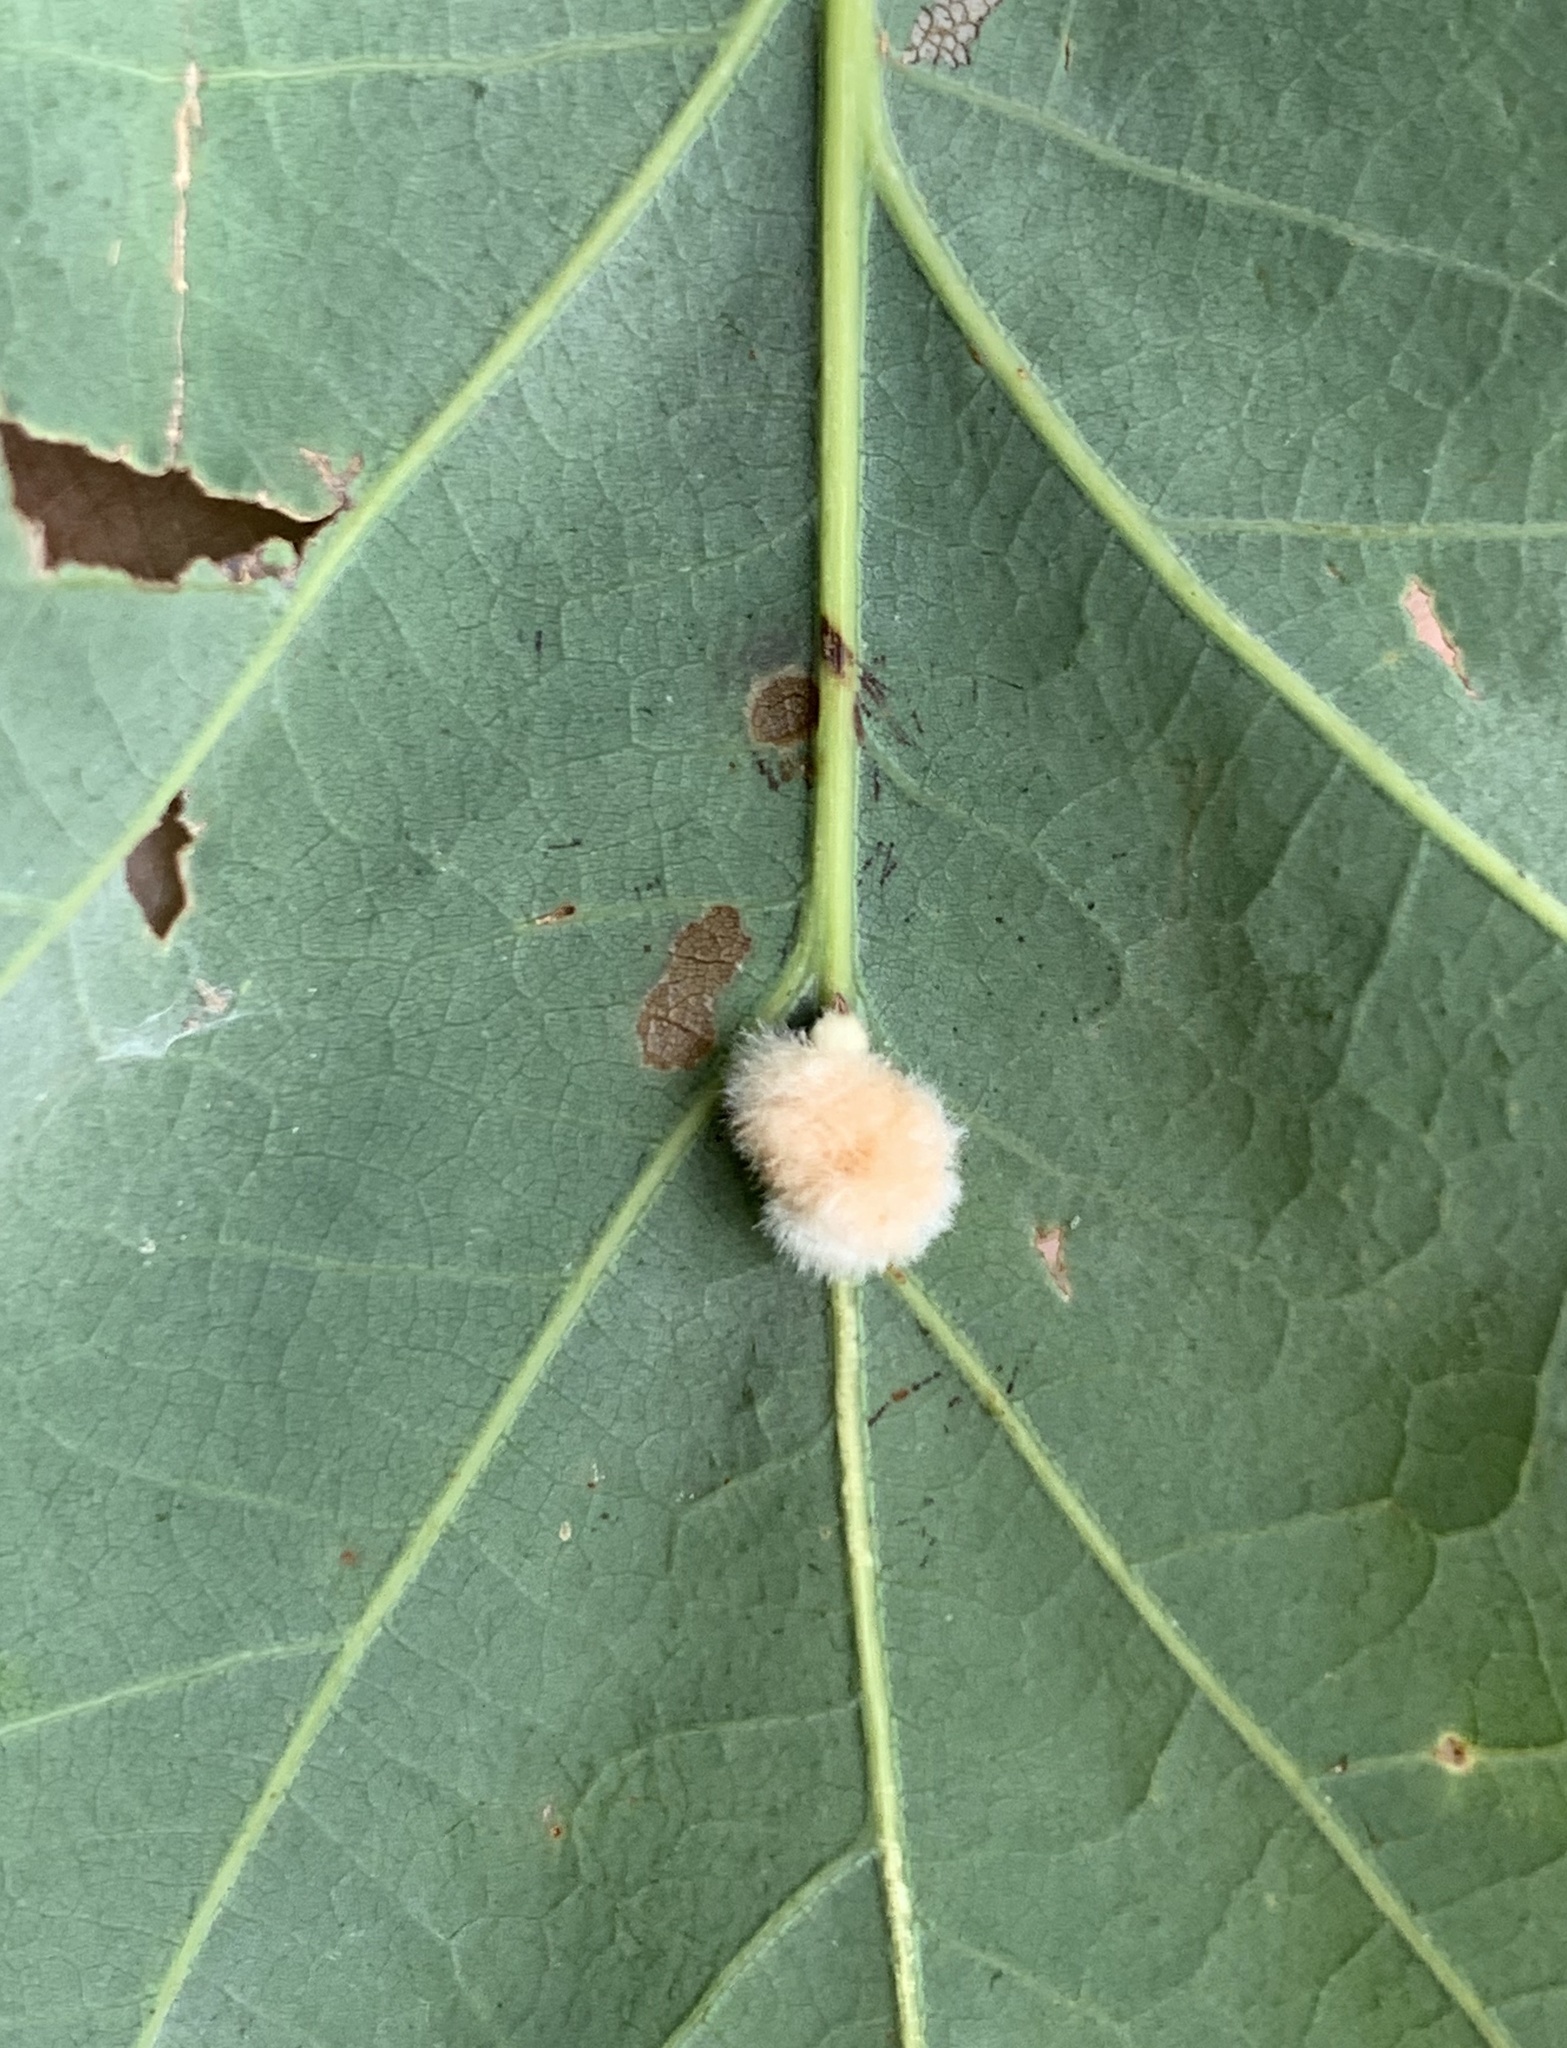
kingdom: Animalia
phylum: Arthropoda
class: Insecta
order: Hymenoptera
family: Cynipidae
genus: Andricus
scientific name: Andricus quercusflocci
